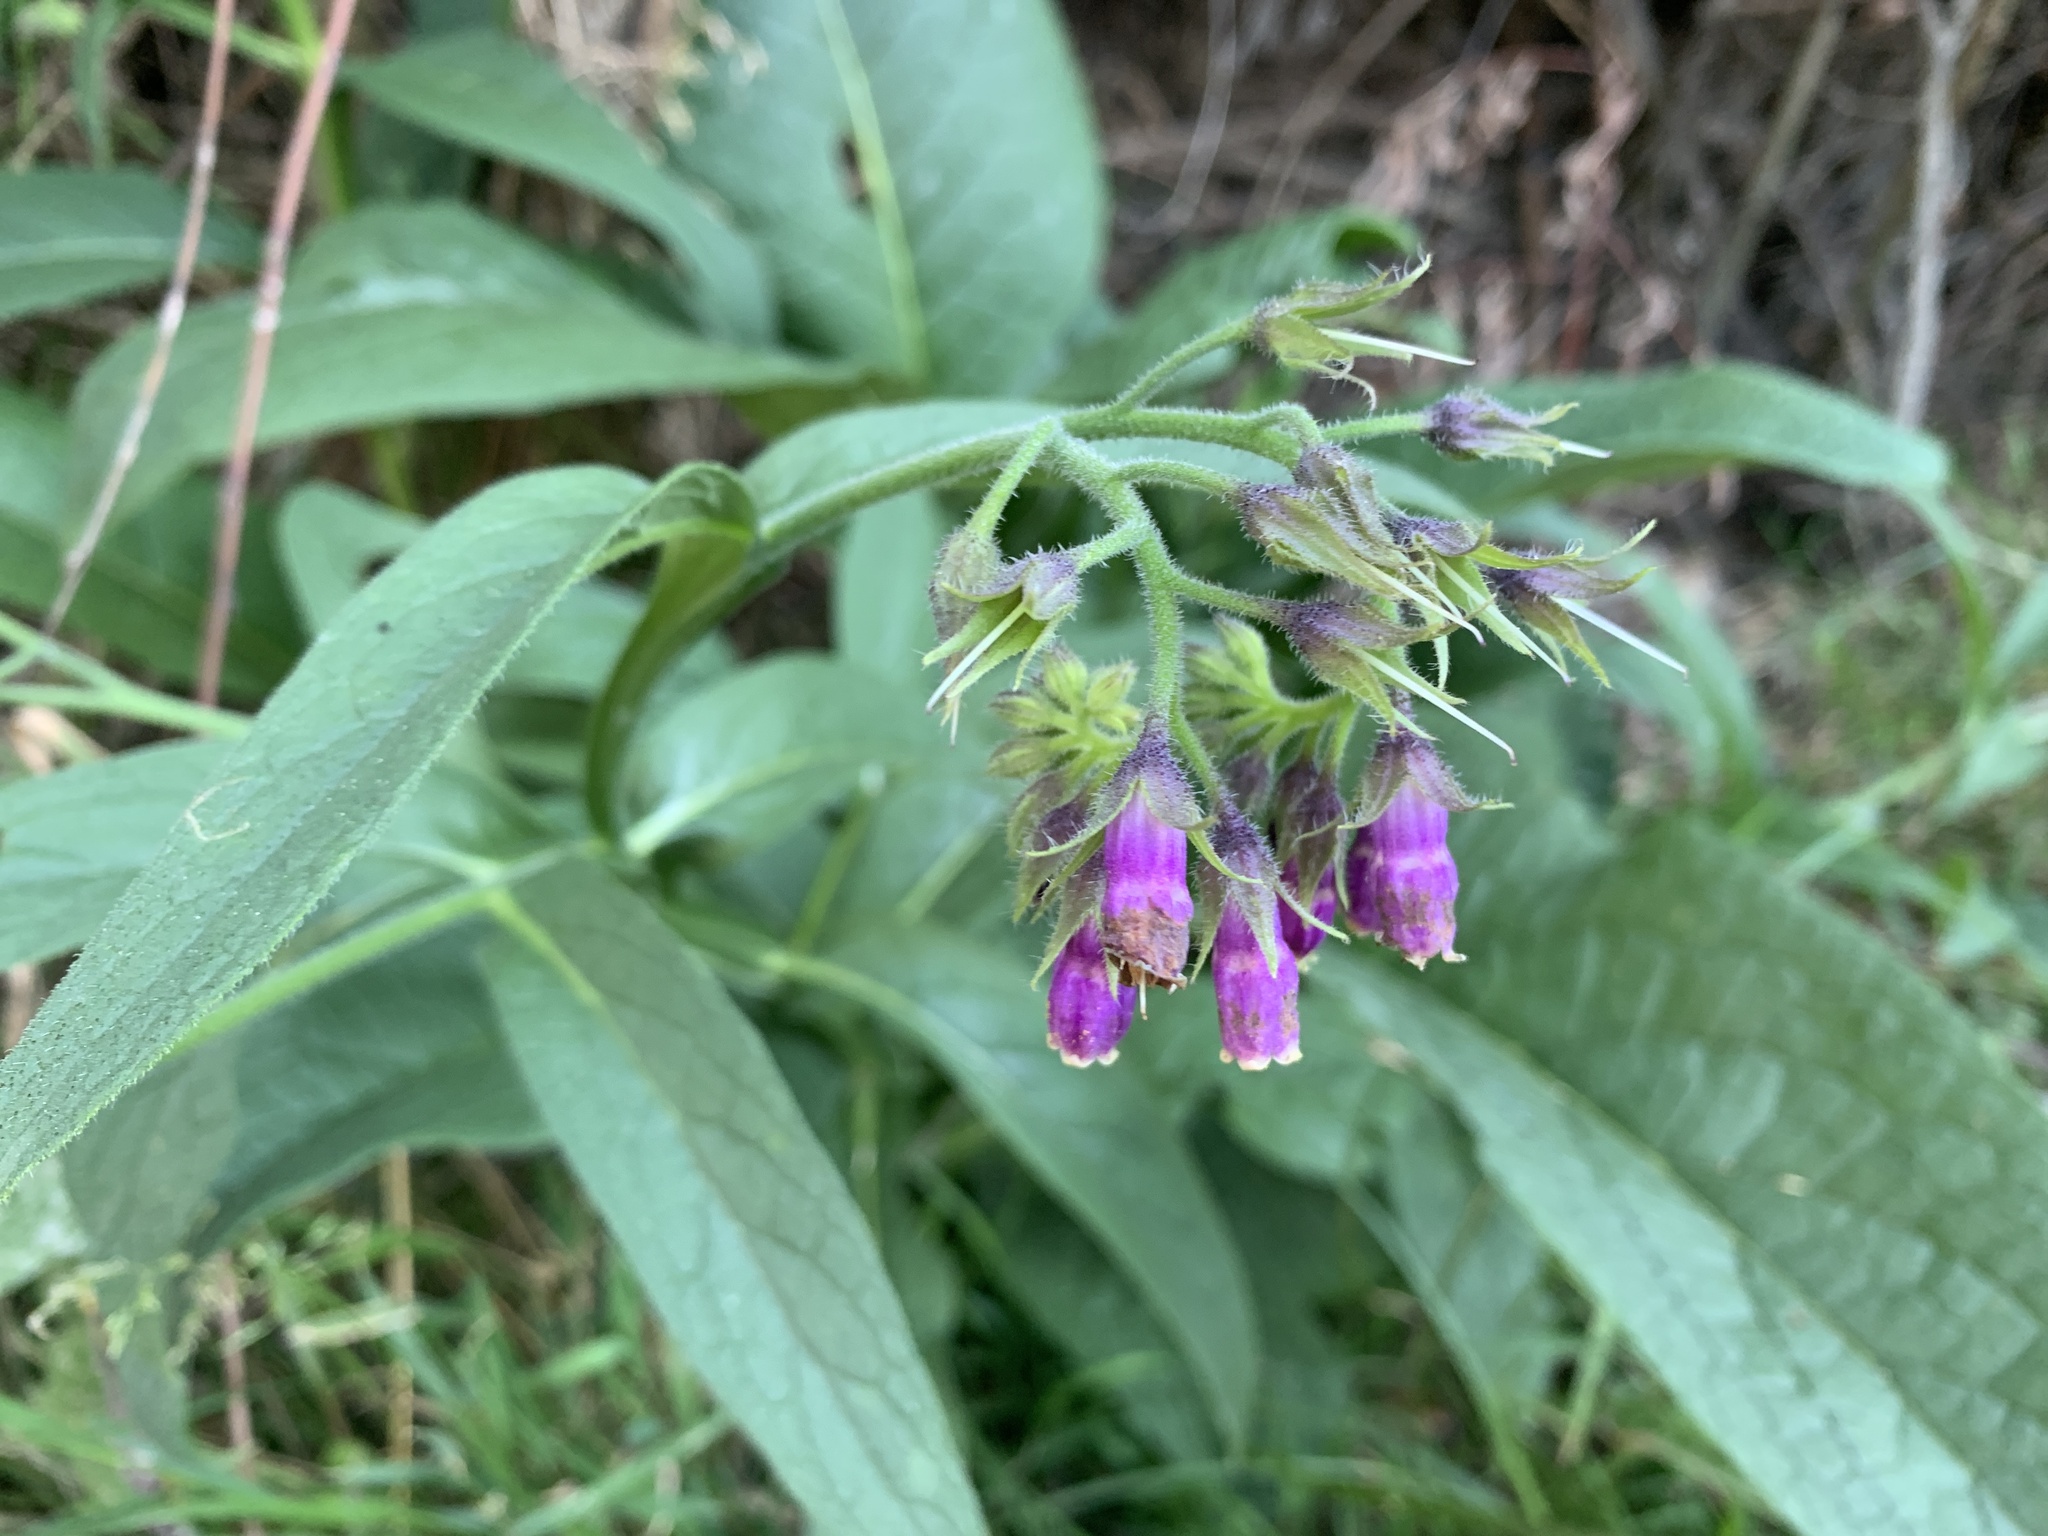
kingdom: Plantae
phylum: Tracheophyta
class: Magnoliopsida
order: Boraginales
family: Boraginaceae
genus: Symphytum
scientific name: Symphytum officinale
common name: Common comfrey
